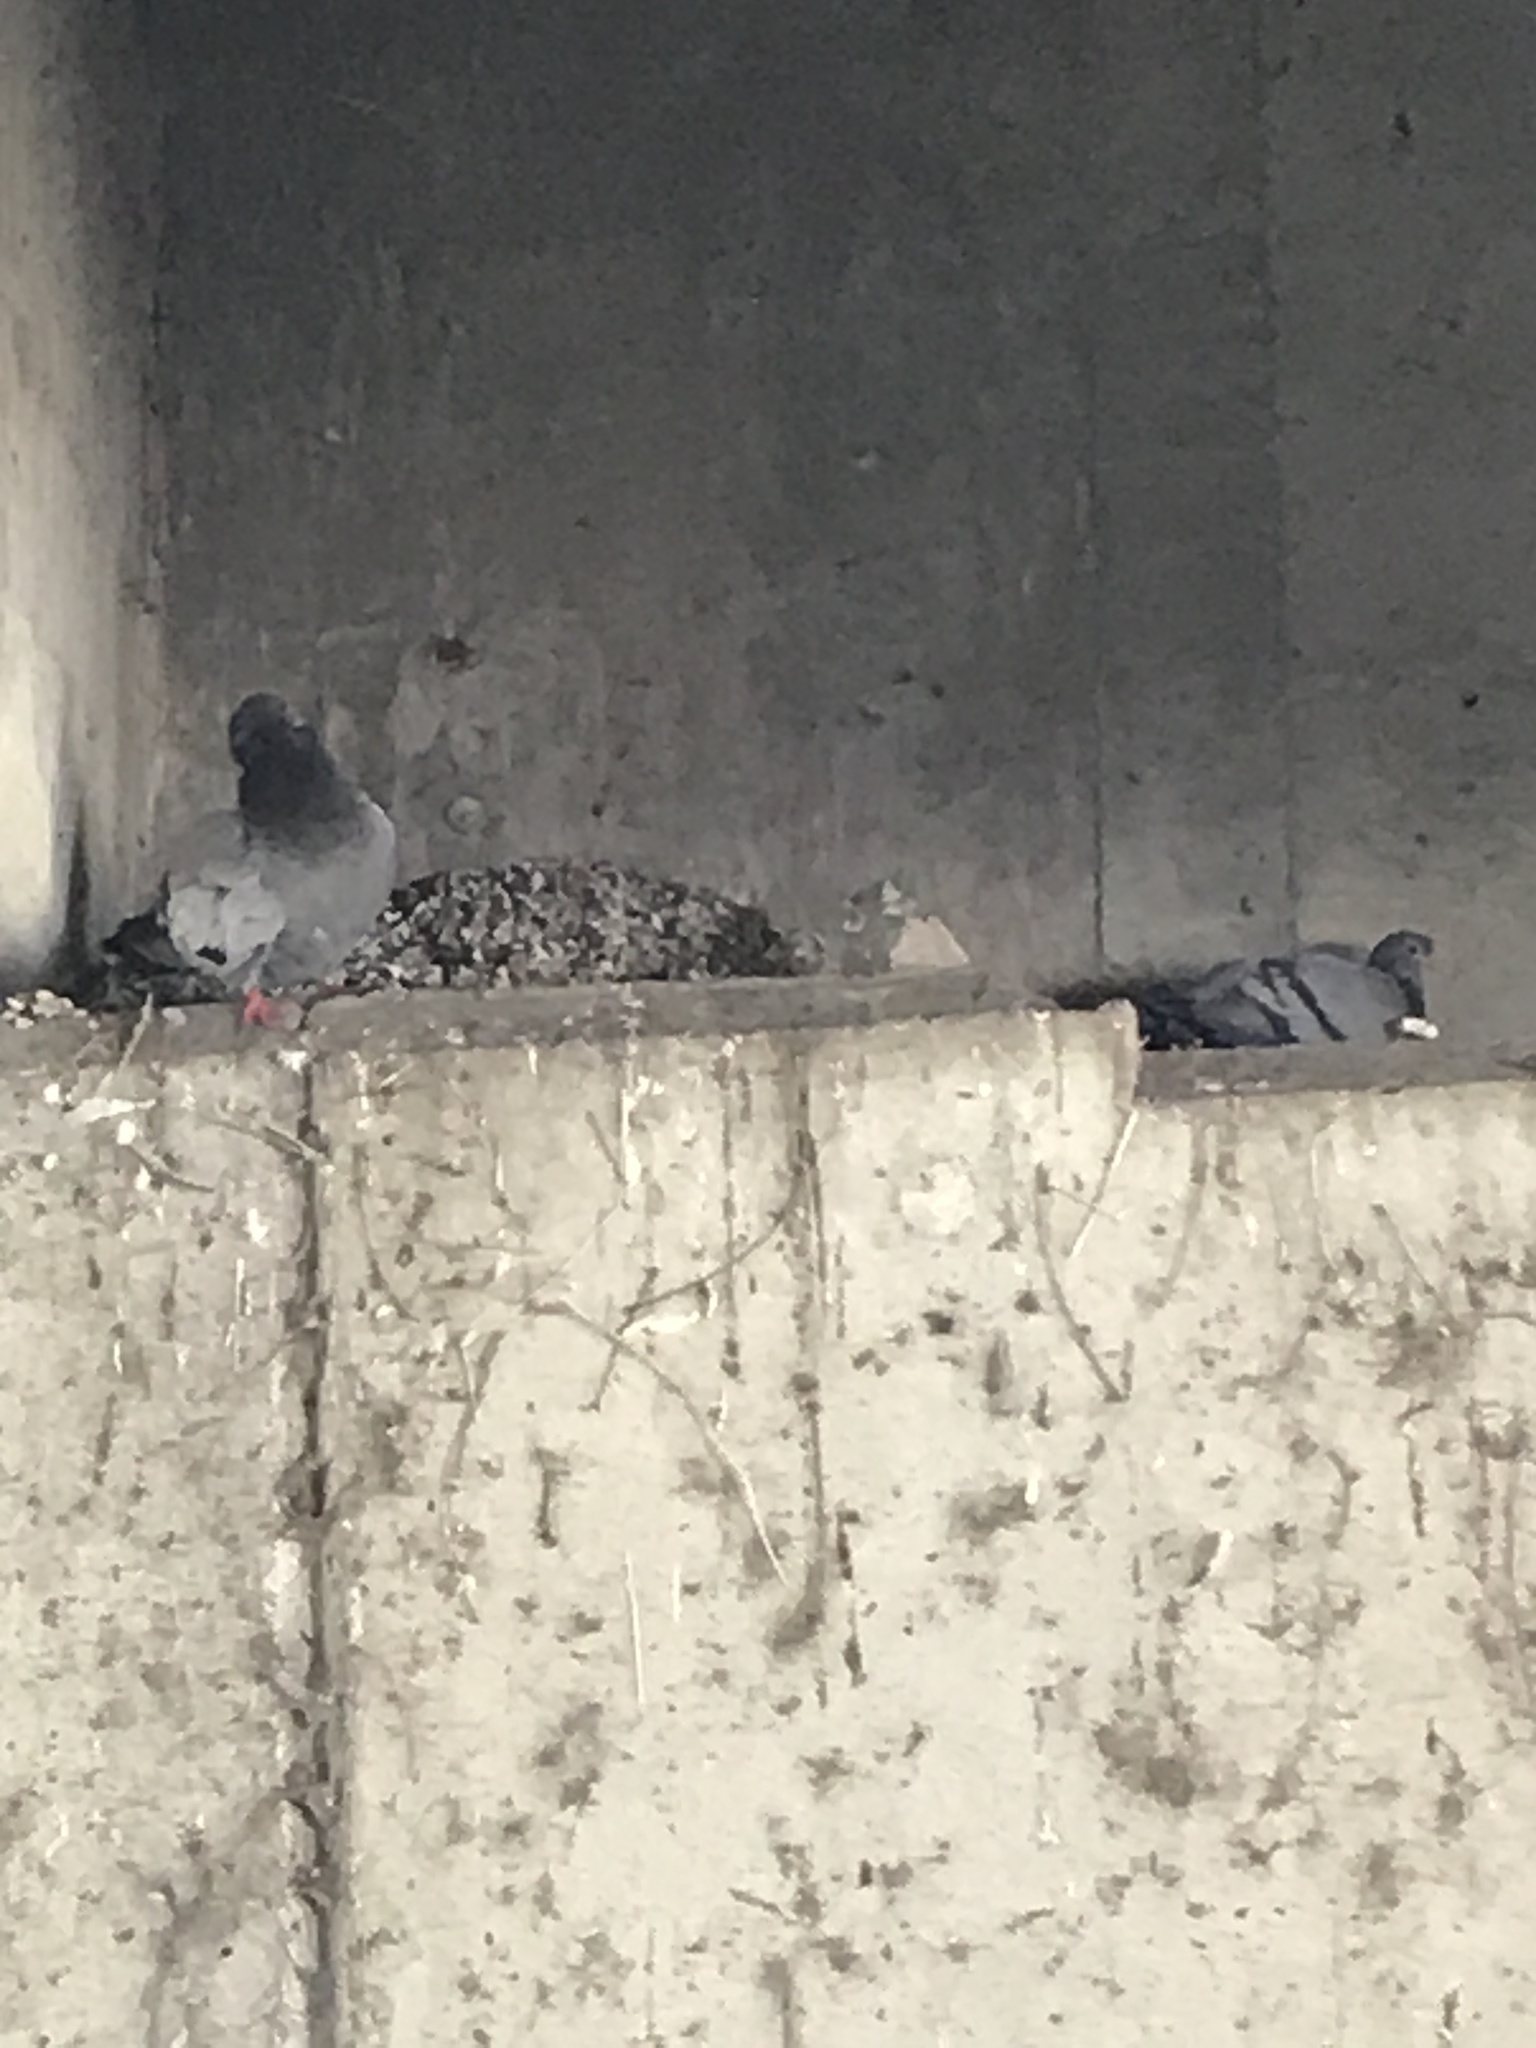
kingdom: Animalia
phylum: Chordata
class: Aves
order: Columbiformes
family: Columbidae
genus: Columba
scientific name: Columba livia
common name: Rock pigeon
